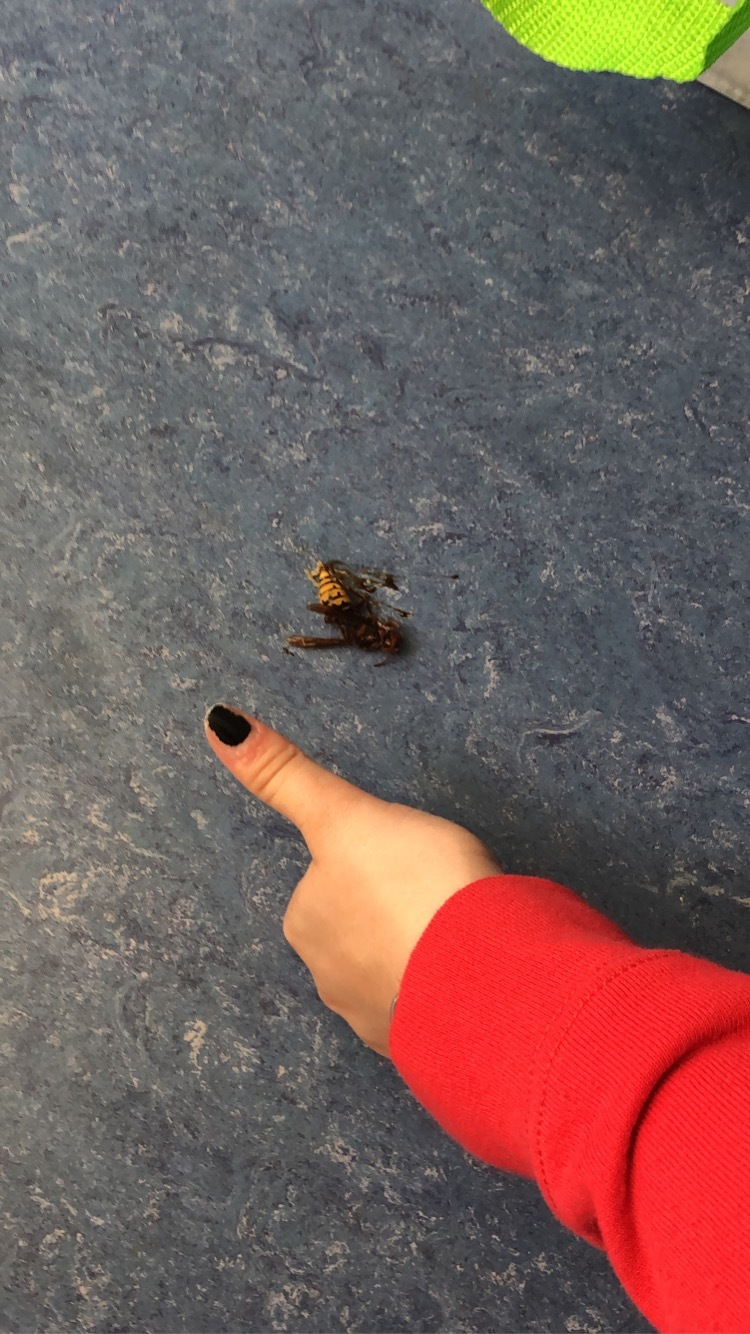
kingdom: Animalia
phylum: Arthropoda
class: Insecta
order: Hymenoptera
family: Vespidae
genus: Vespa
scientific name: Vespa crabro
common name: Hornet
